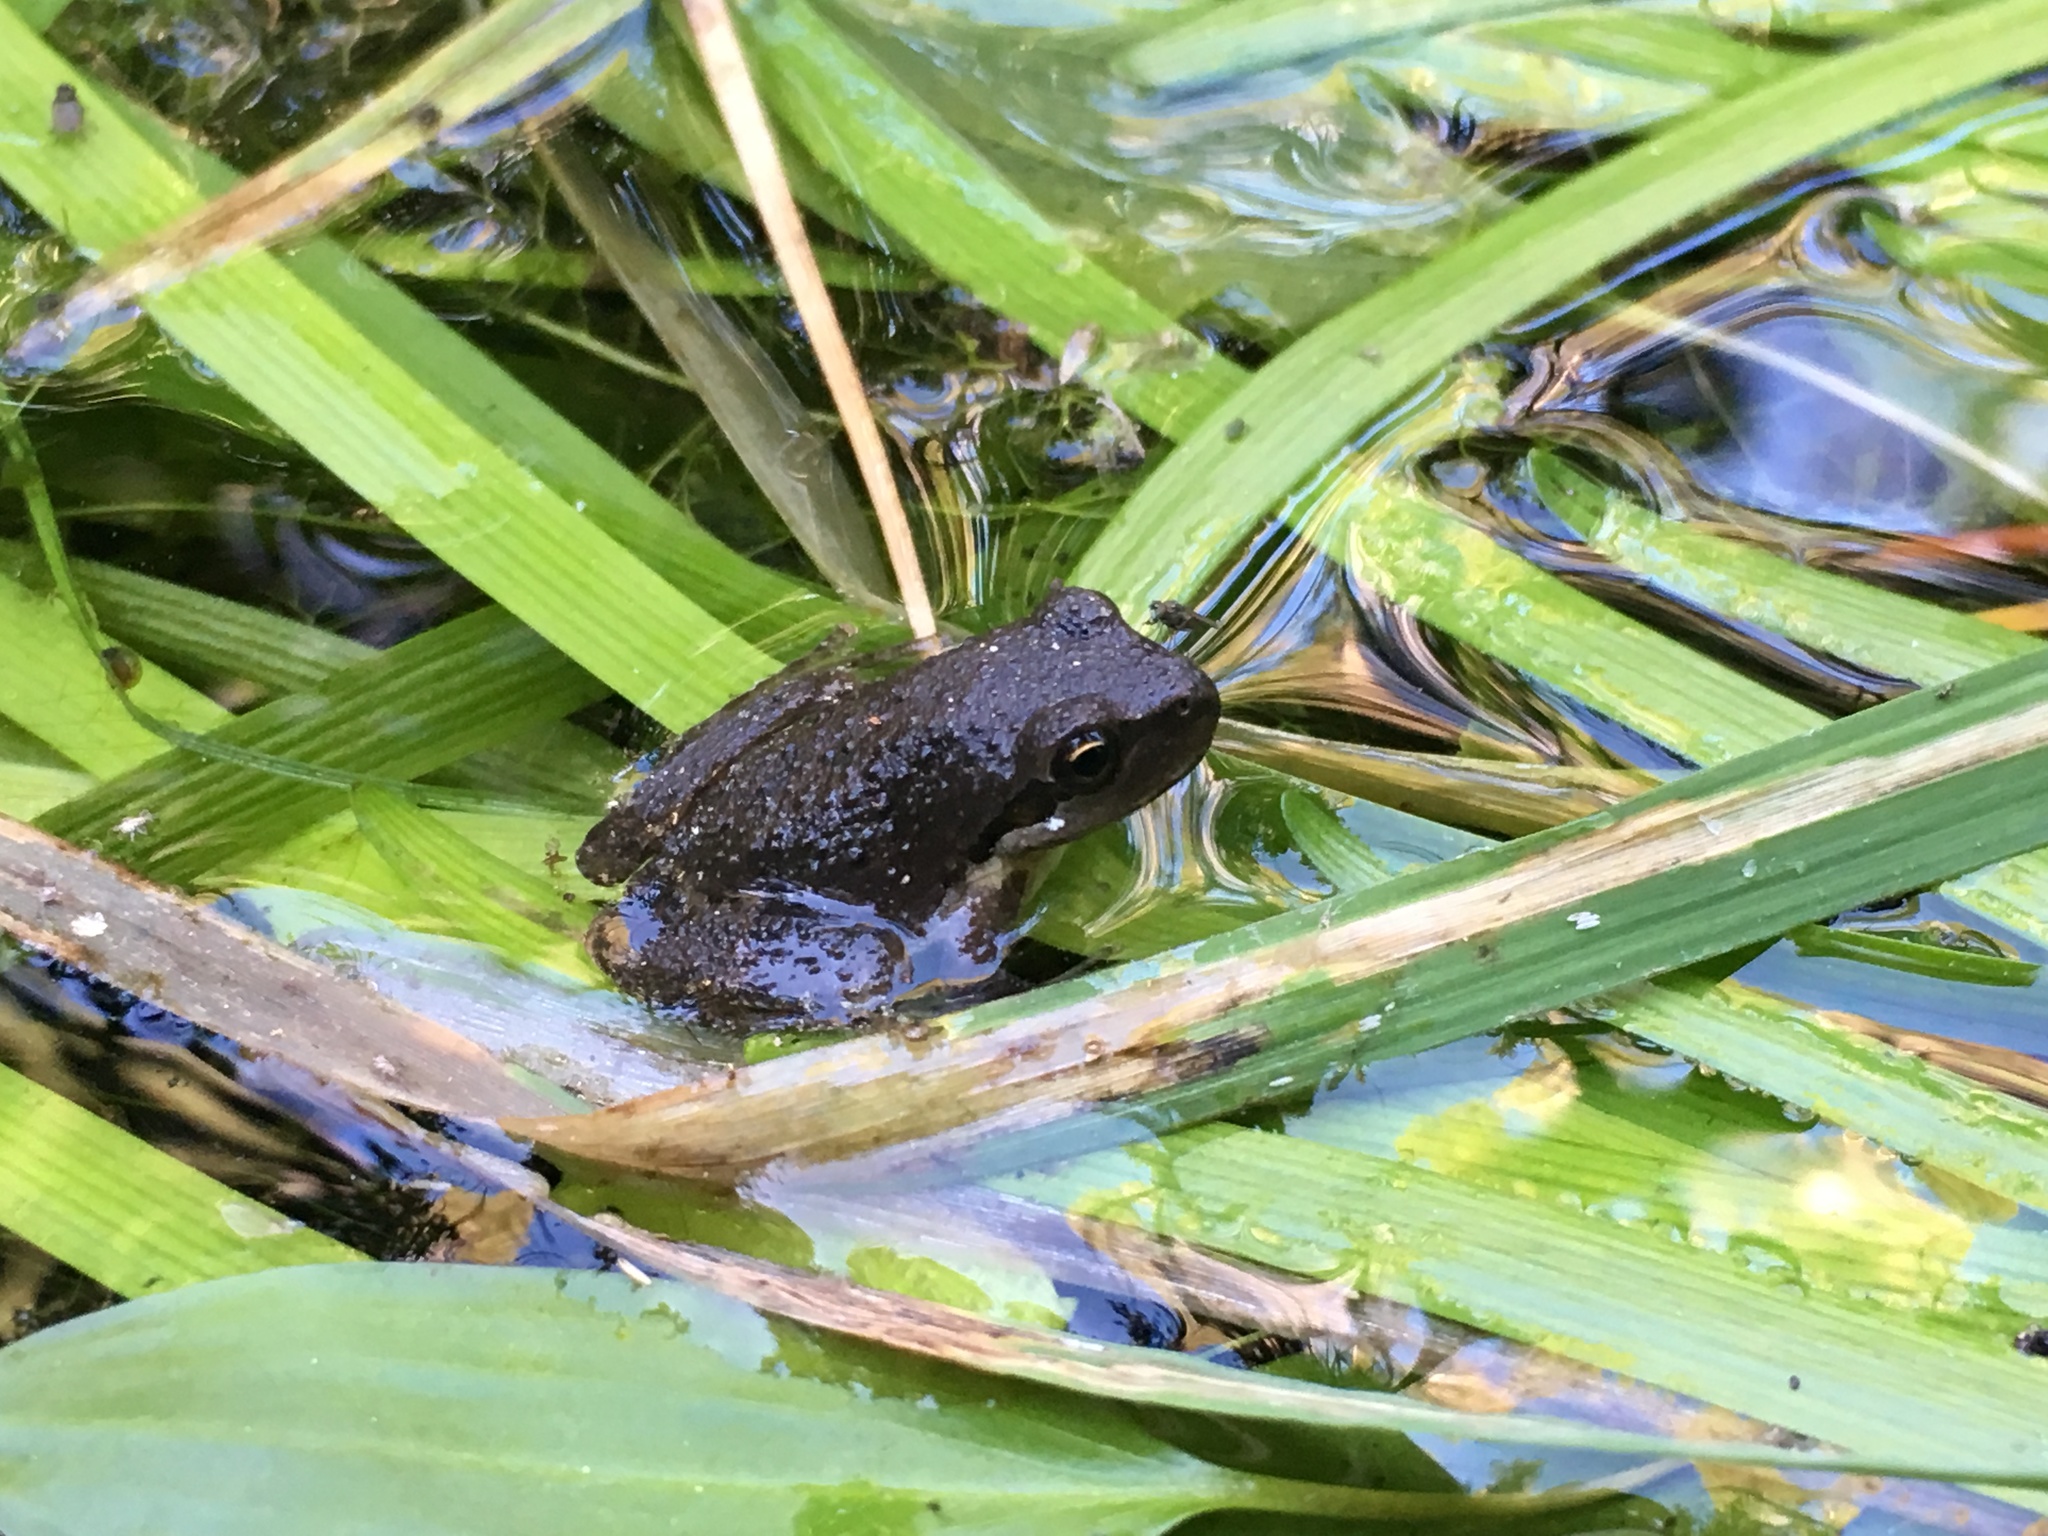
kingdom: Animalia
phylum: Chordata
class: Amphibia
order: Anura
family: Hylidae
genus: Pseudacris
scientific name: Pseudacris regilla
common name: Pacific chorus frog
